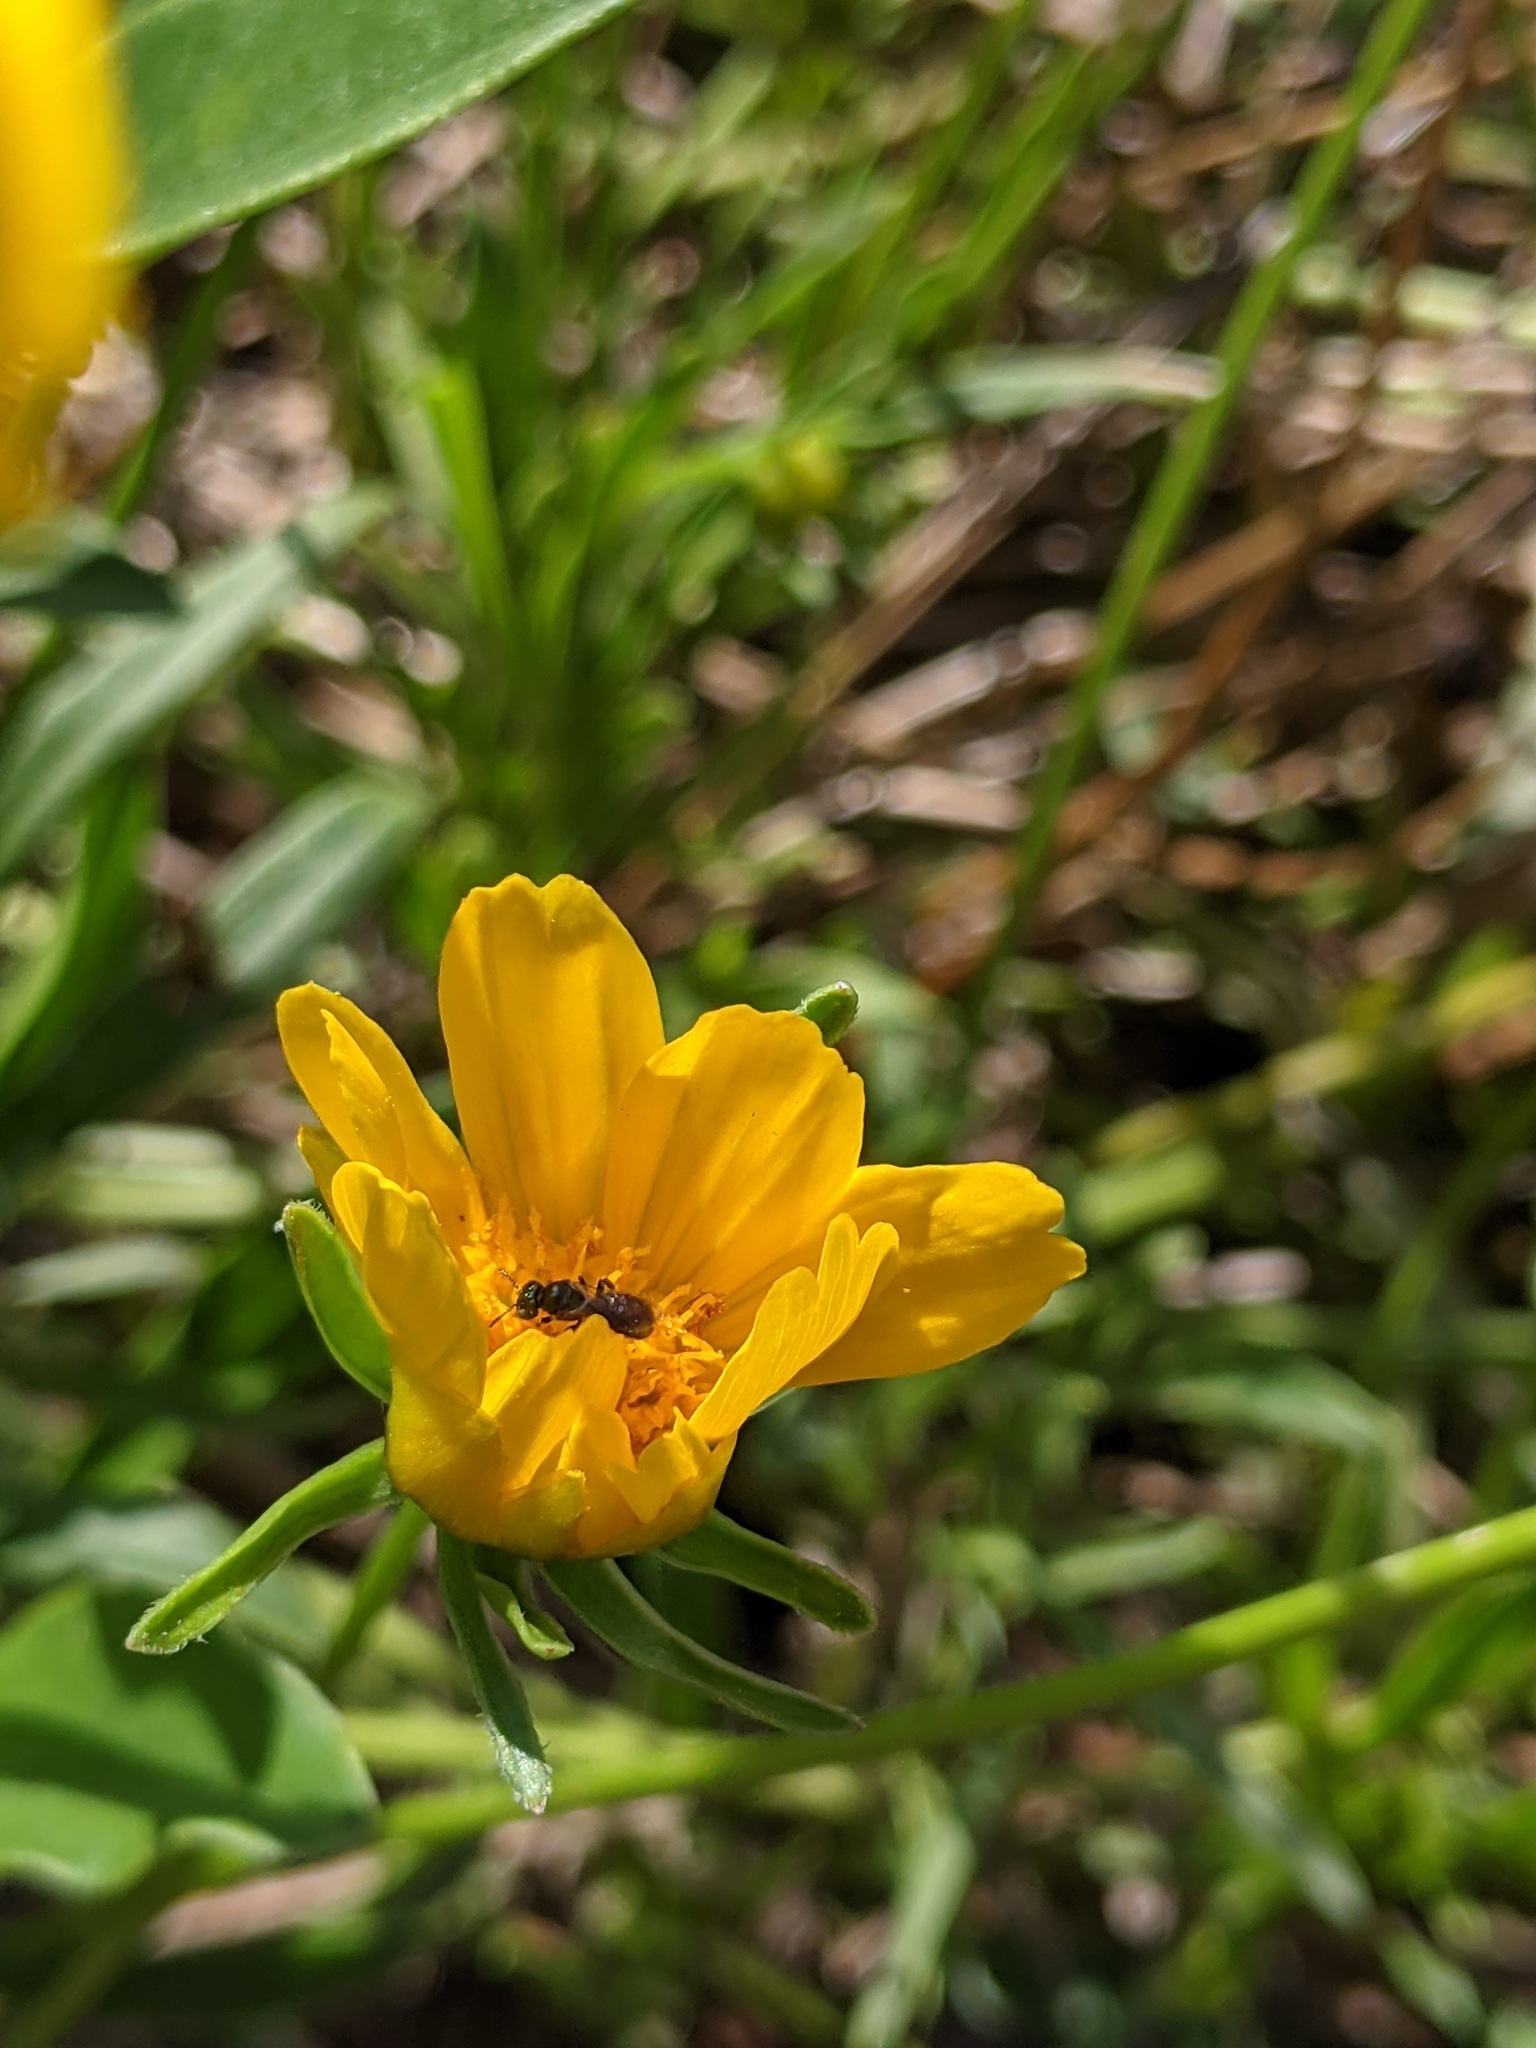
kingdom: Animalia
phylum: Arthropoda
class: Insecta
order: Hymenoptera
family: Apidae
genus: Zadontomerus
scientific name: Zadontomerus
